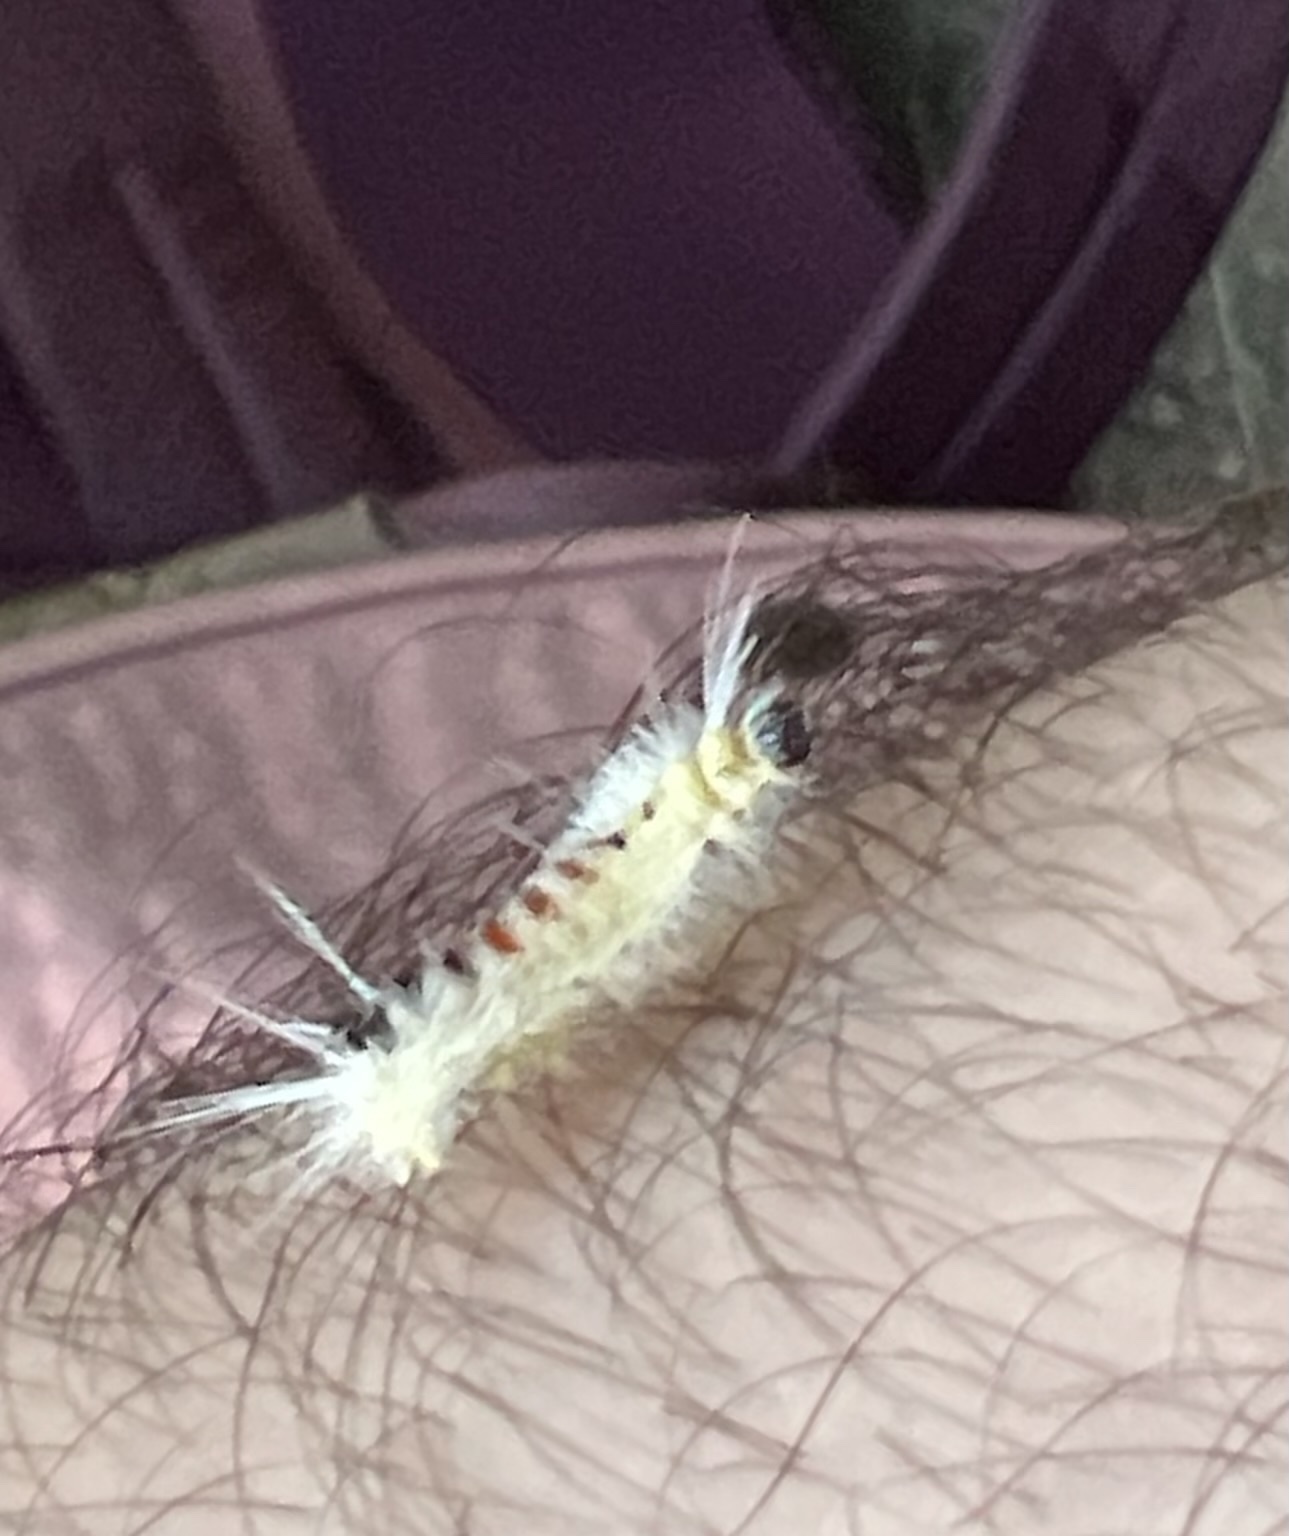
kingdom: Animalia
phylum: Arthropoda
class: Insecta
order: Lepidoptera
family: Erebidae
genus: Lophocampa
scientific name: Lophocampa maculata
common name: Spotted tussock moth
